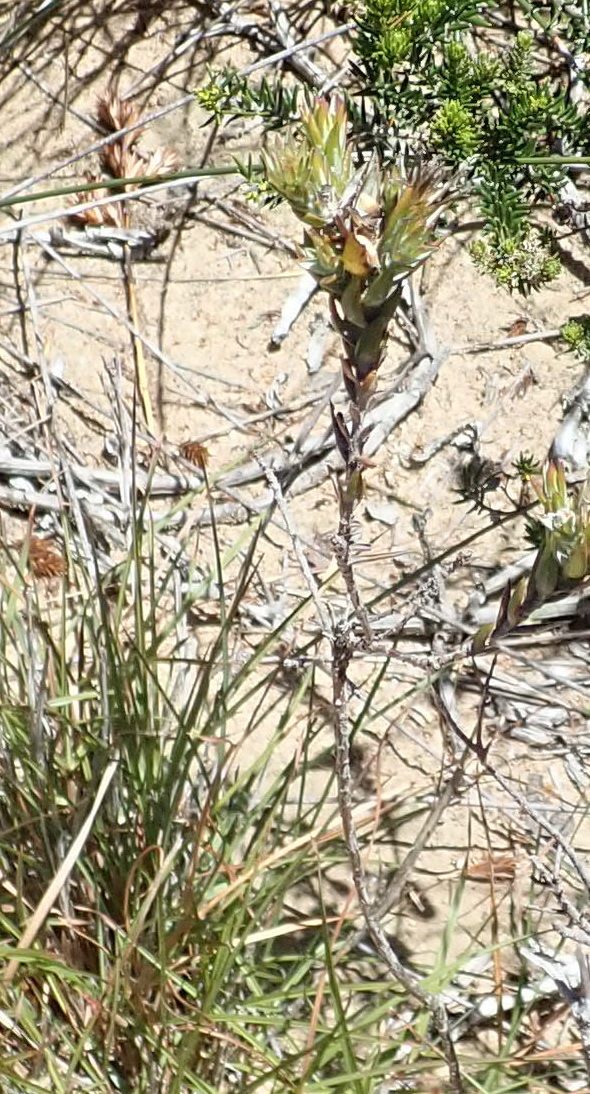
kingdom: Plantae
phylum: Tracheophyta
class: Magnoliopsida
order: Asterales
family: Asteraceae
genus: Oedera
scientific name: Oedera pungens
